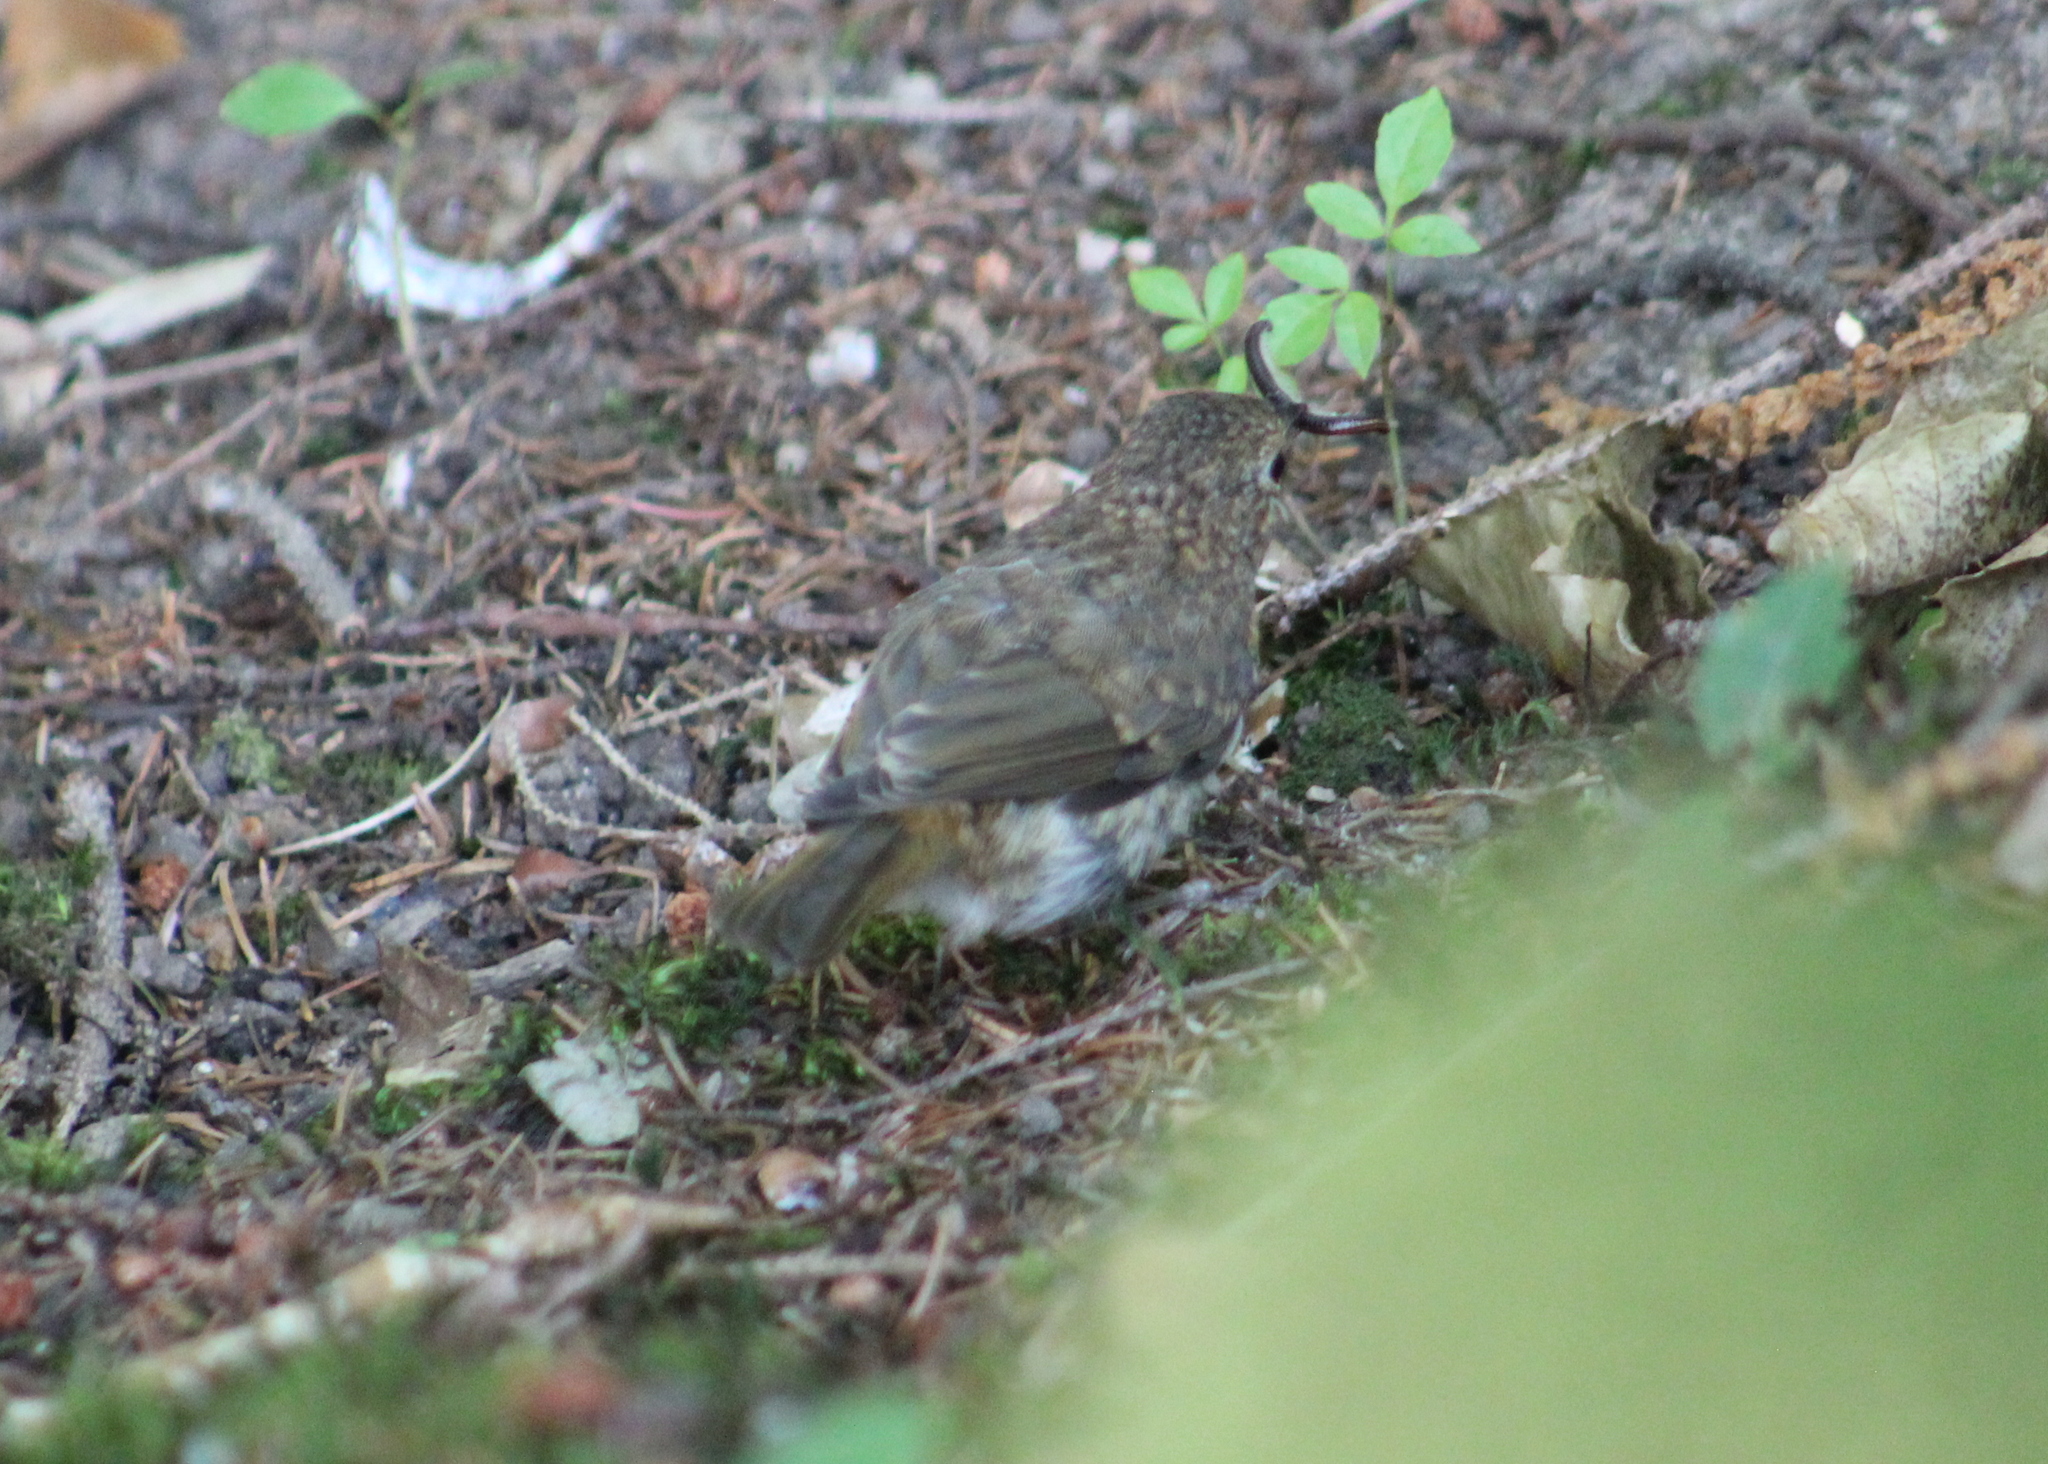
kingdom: Animalia
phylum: Chordata
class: Aves
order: Passeriformes
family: Muscicapidae
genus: Erithacus
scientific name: Erithacus rubecula
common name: European robin
